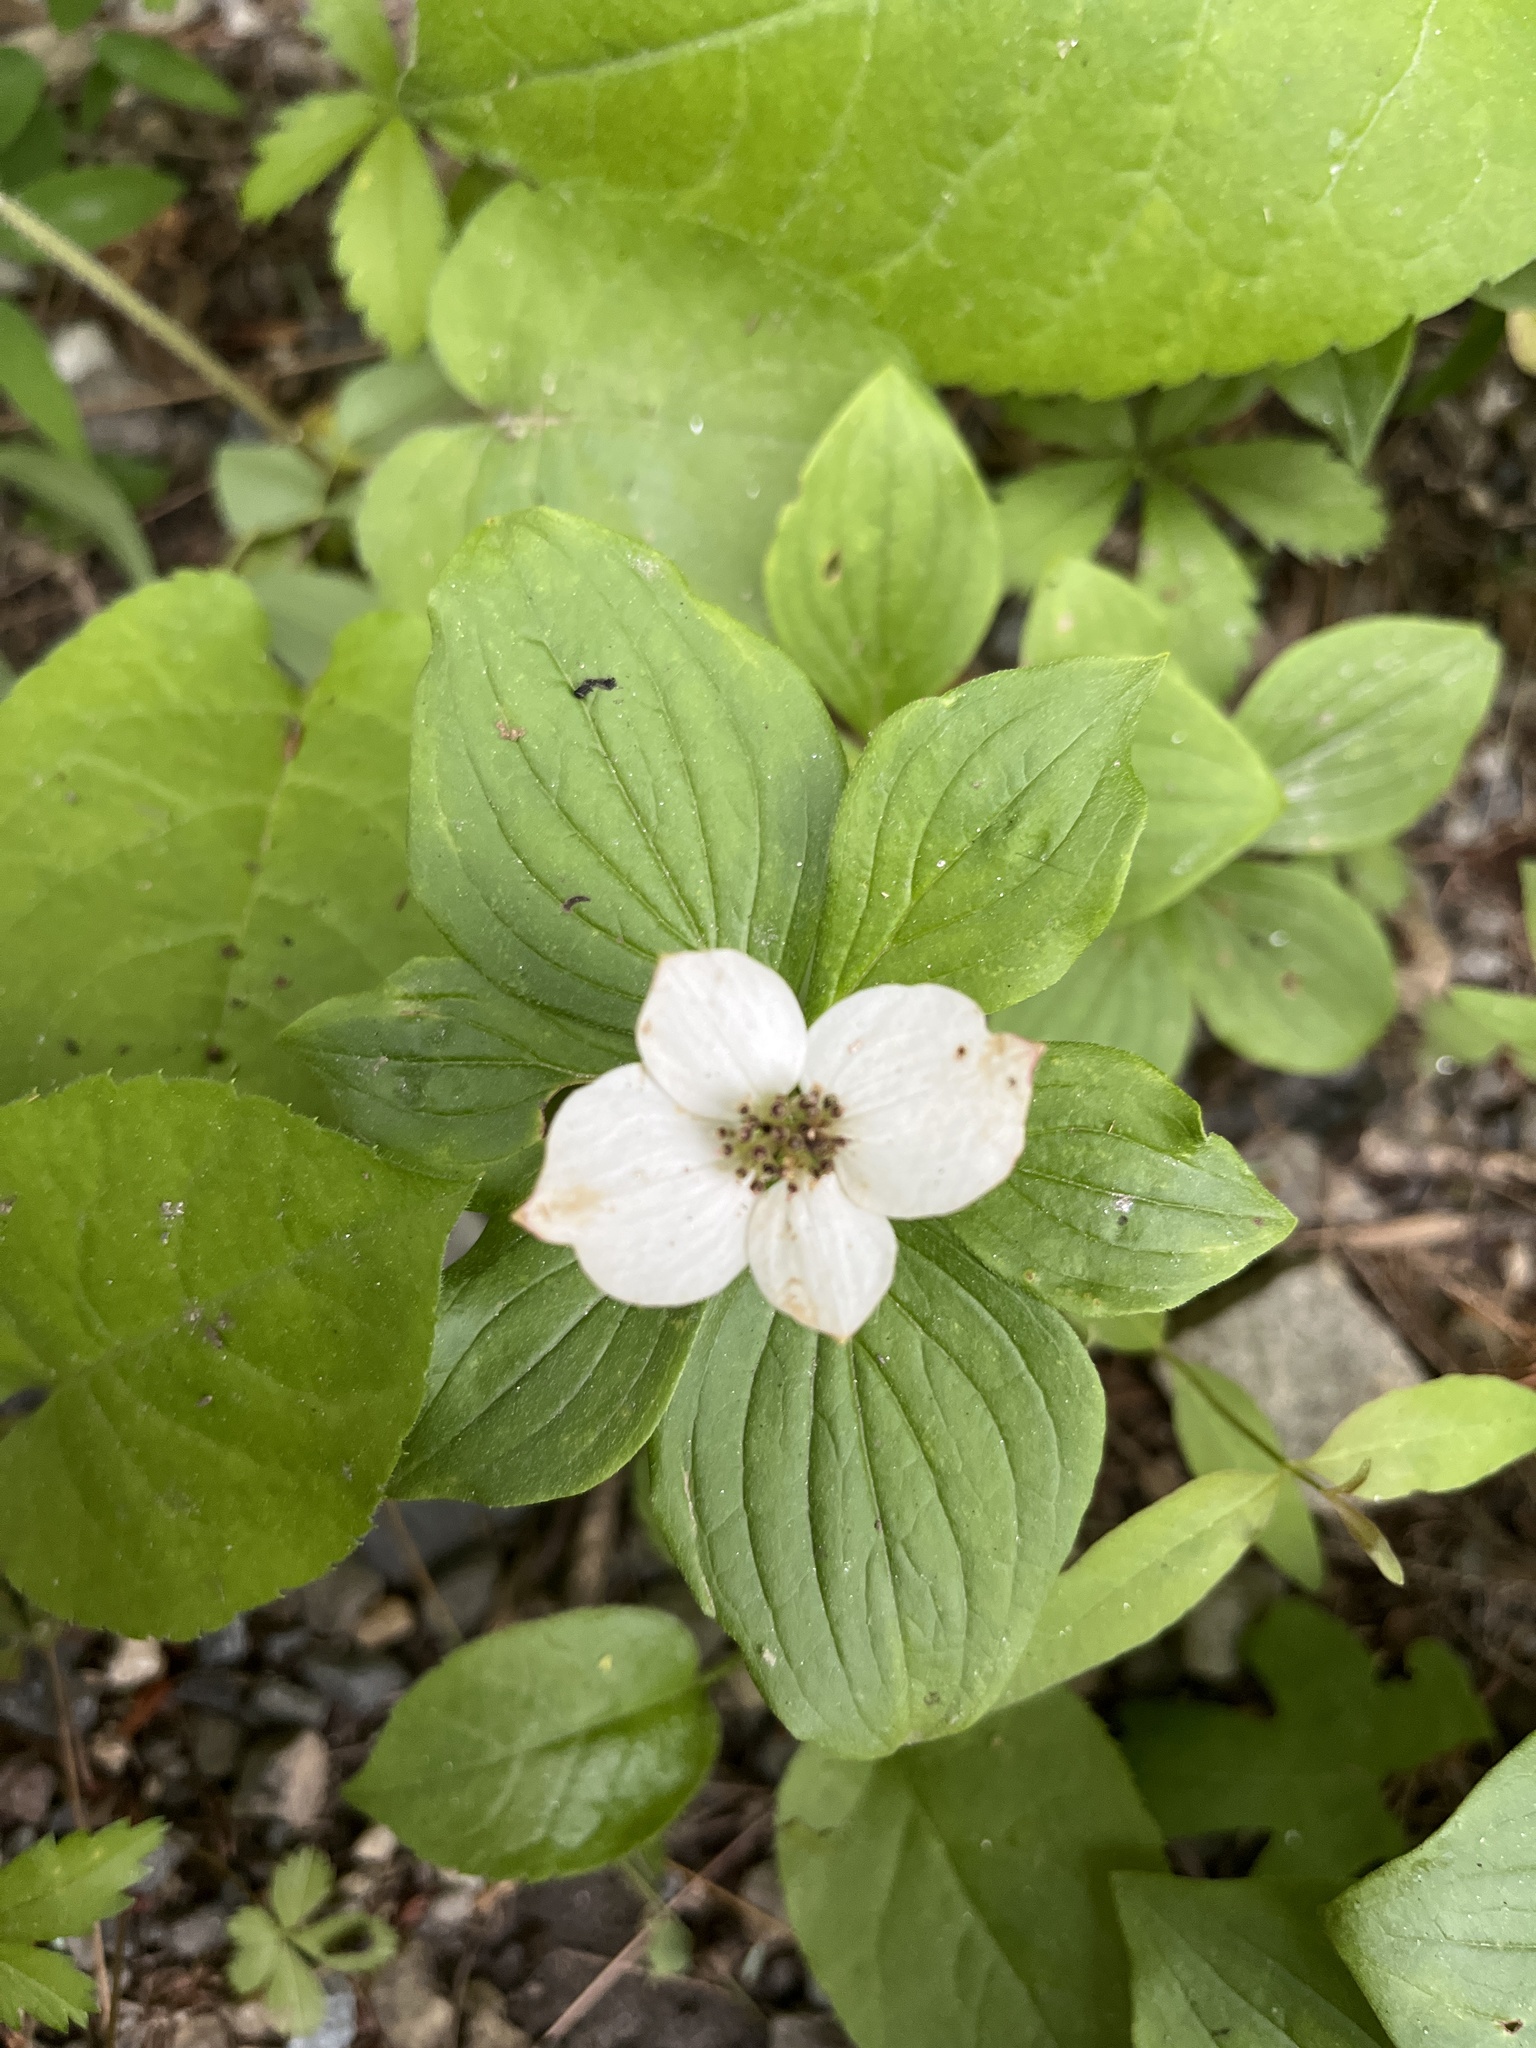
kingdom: Plantae
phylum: Tracheophyta
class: Magnoliopsida
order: Cornales
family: Cornaceae
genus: Cornus
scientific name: Cornus canadensis
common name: Creeping dogwood
